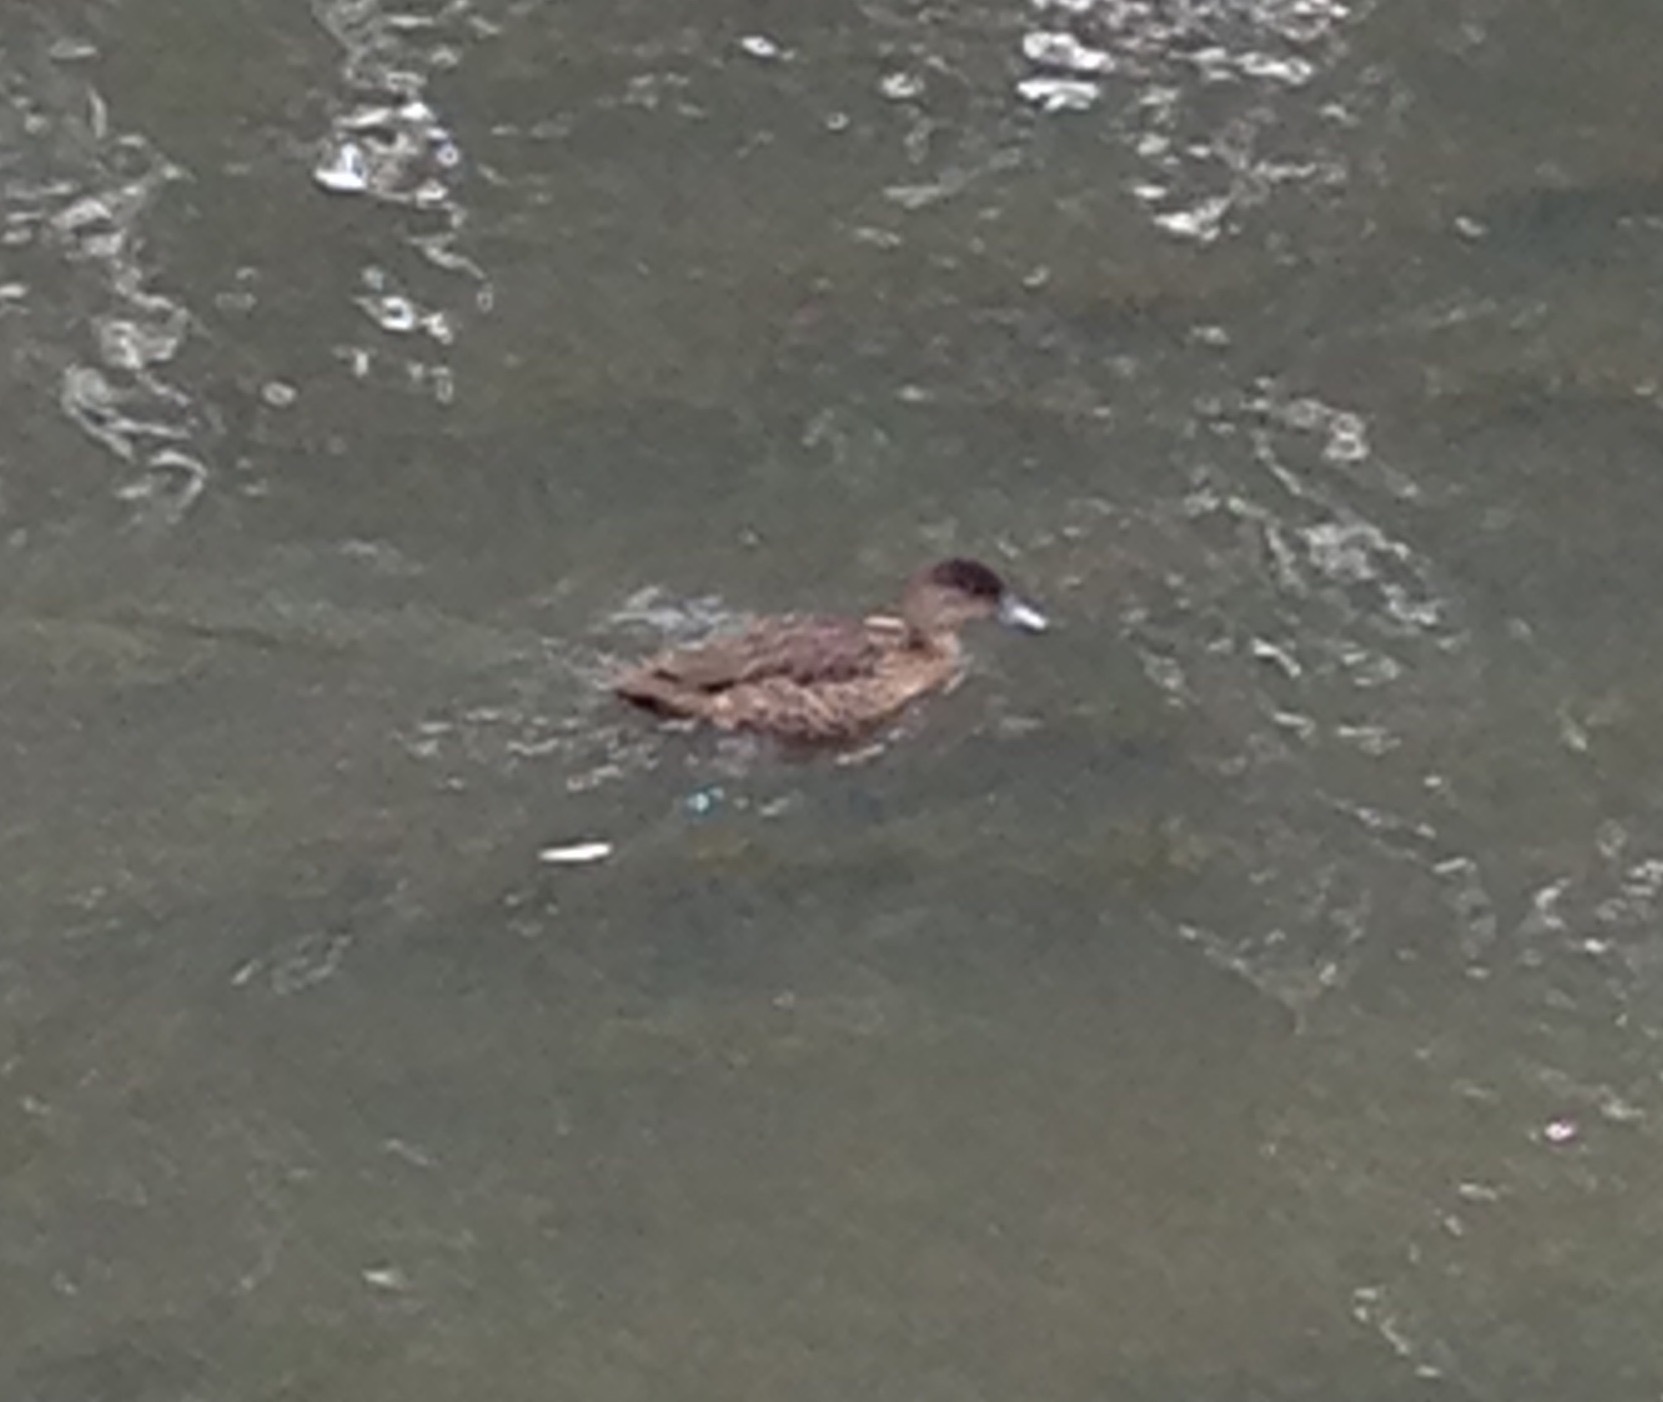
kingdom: Animalia
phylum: Chordata
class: Aves
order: Anseriformes
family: Anatidae
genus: Anas
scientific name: Anas castanea
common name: Chestnut teal
